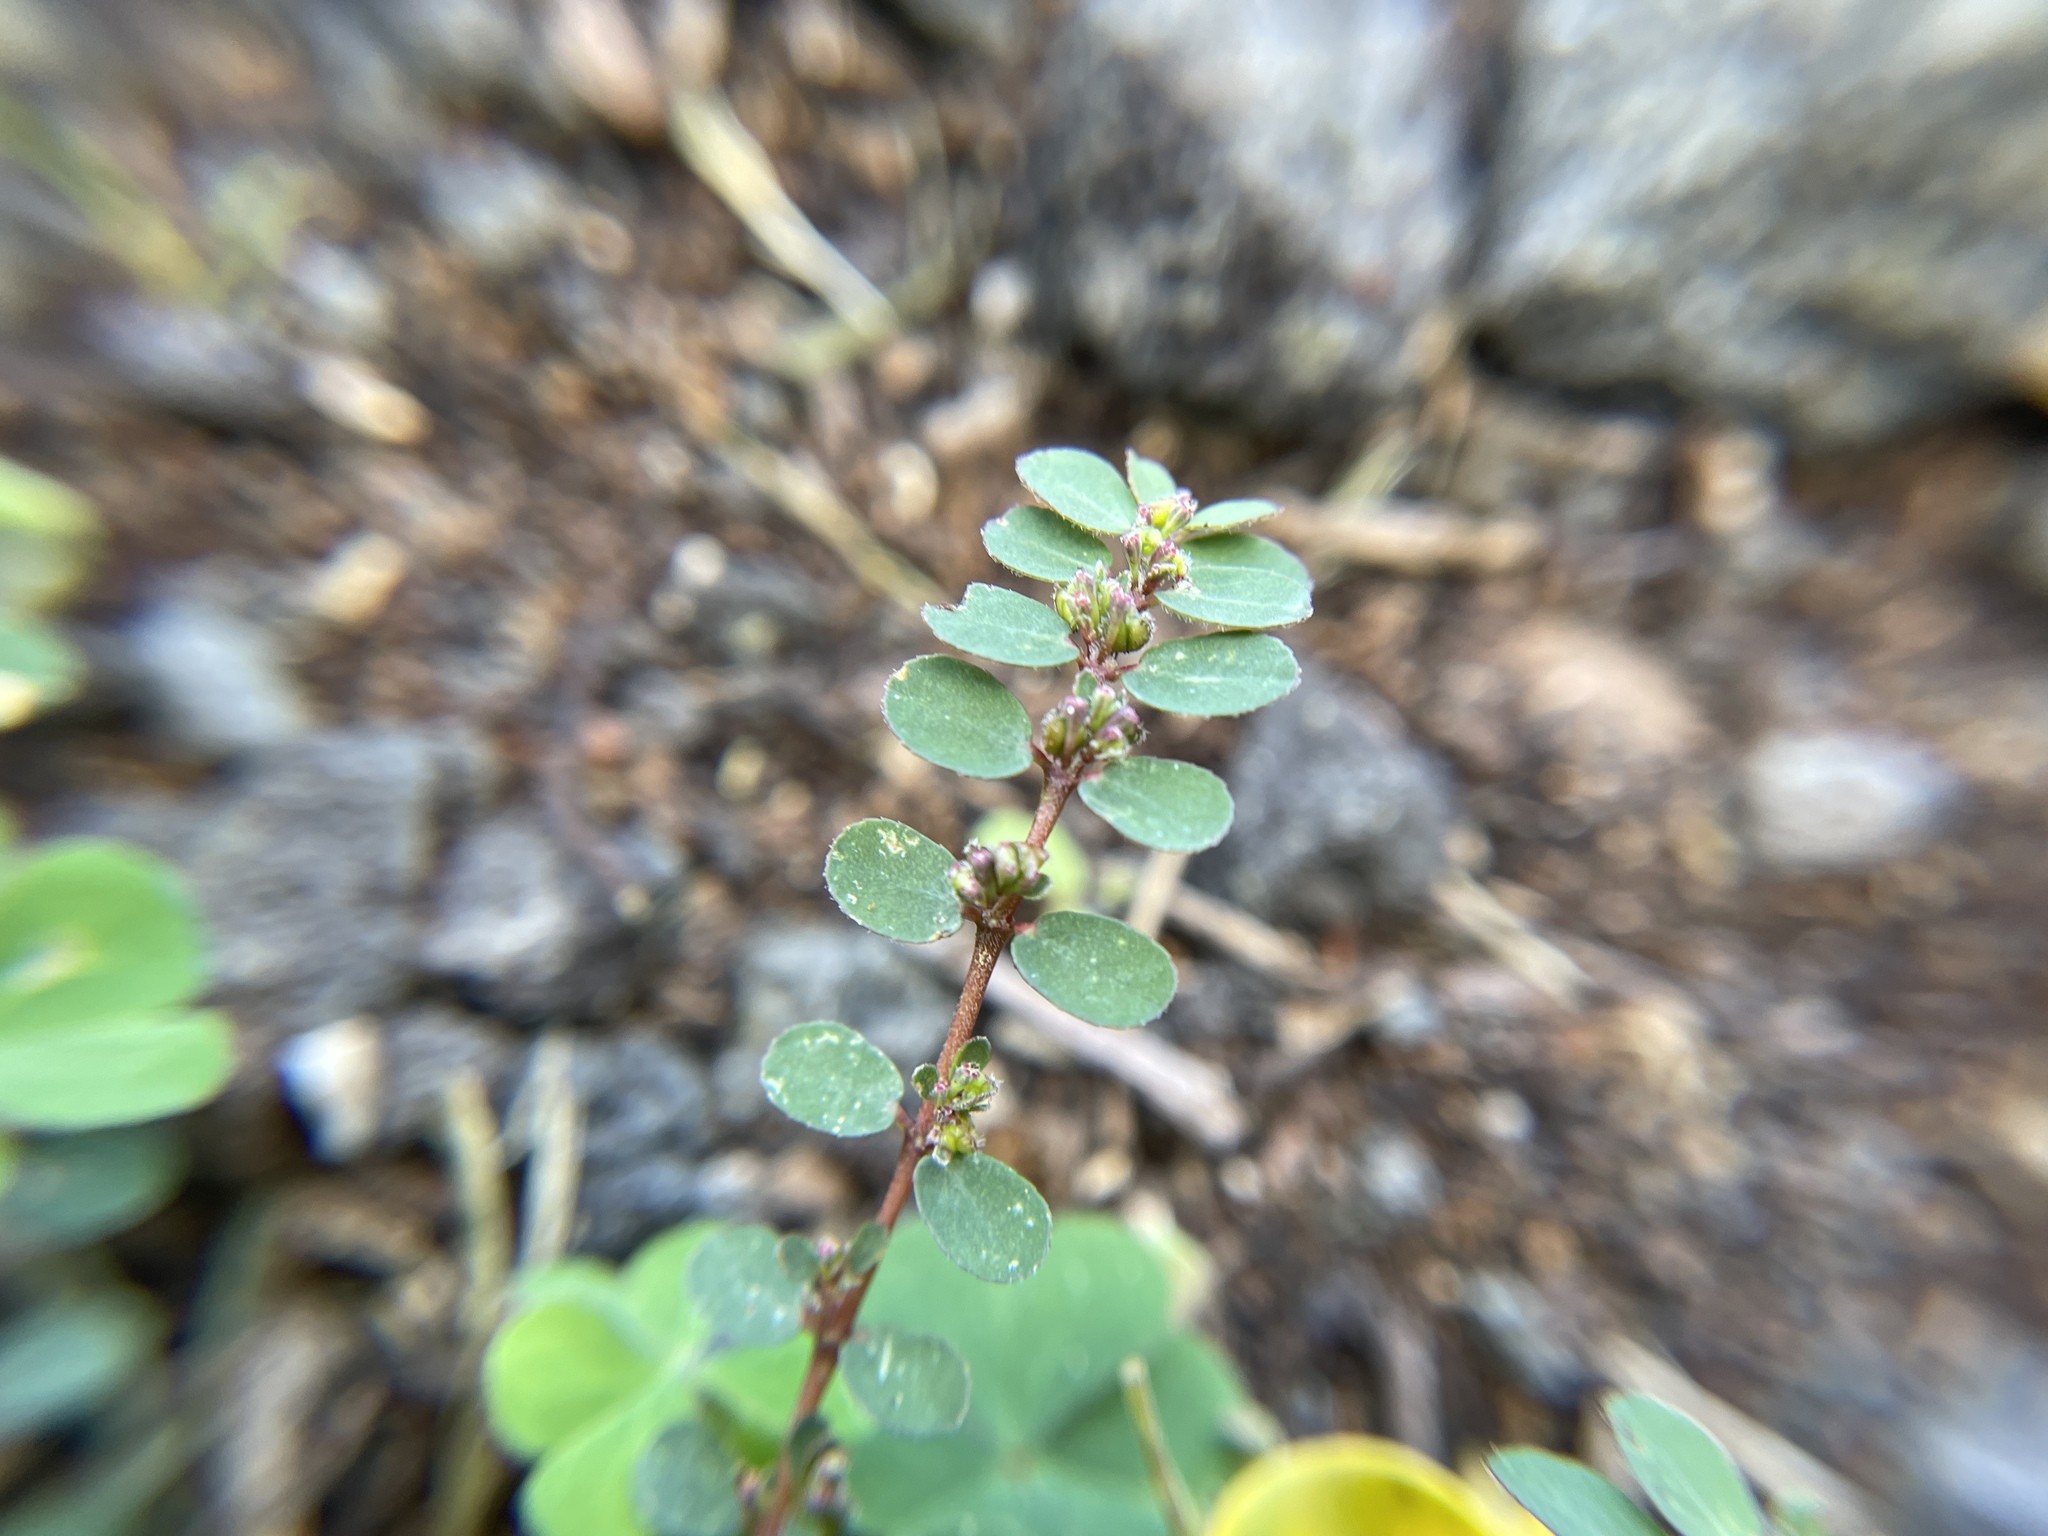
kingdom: Plantae
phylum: Tracheophyta
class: Magnoliopsida
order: Malpighiales
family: Euphorbiaceae
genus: Euphorbia
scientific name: Euphorbia prostrata
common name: Prostrate sandmat
